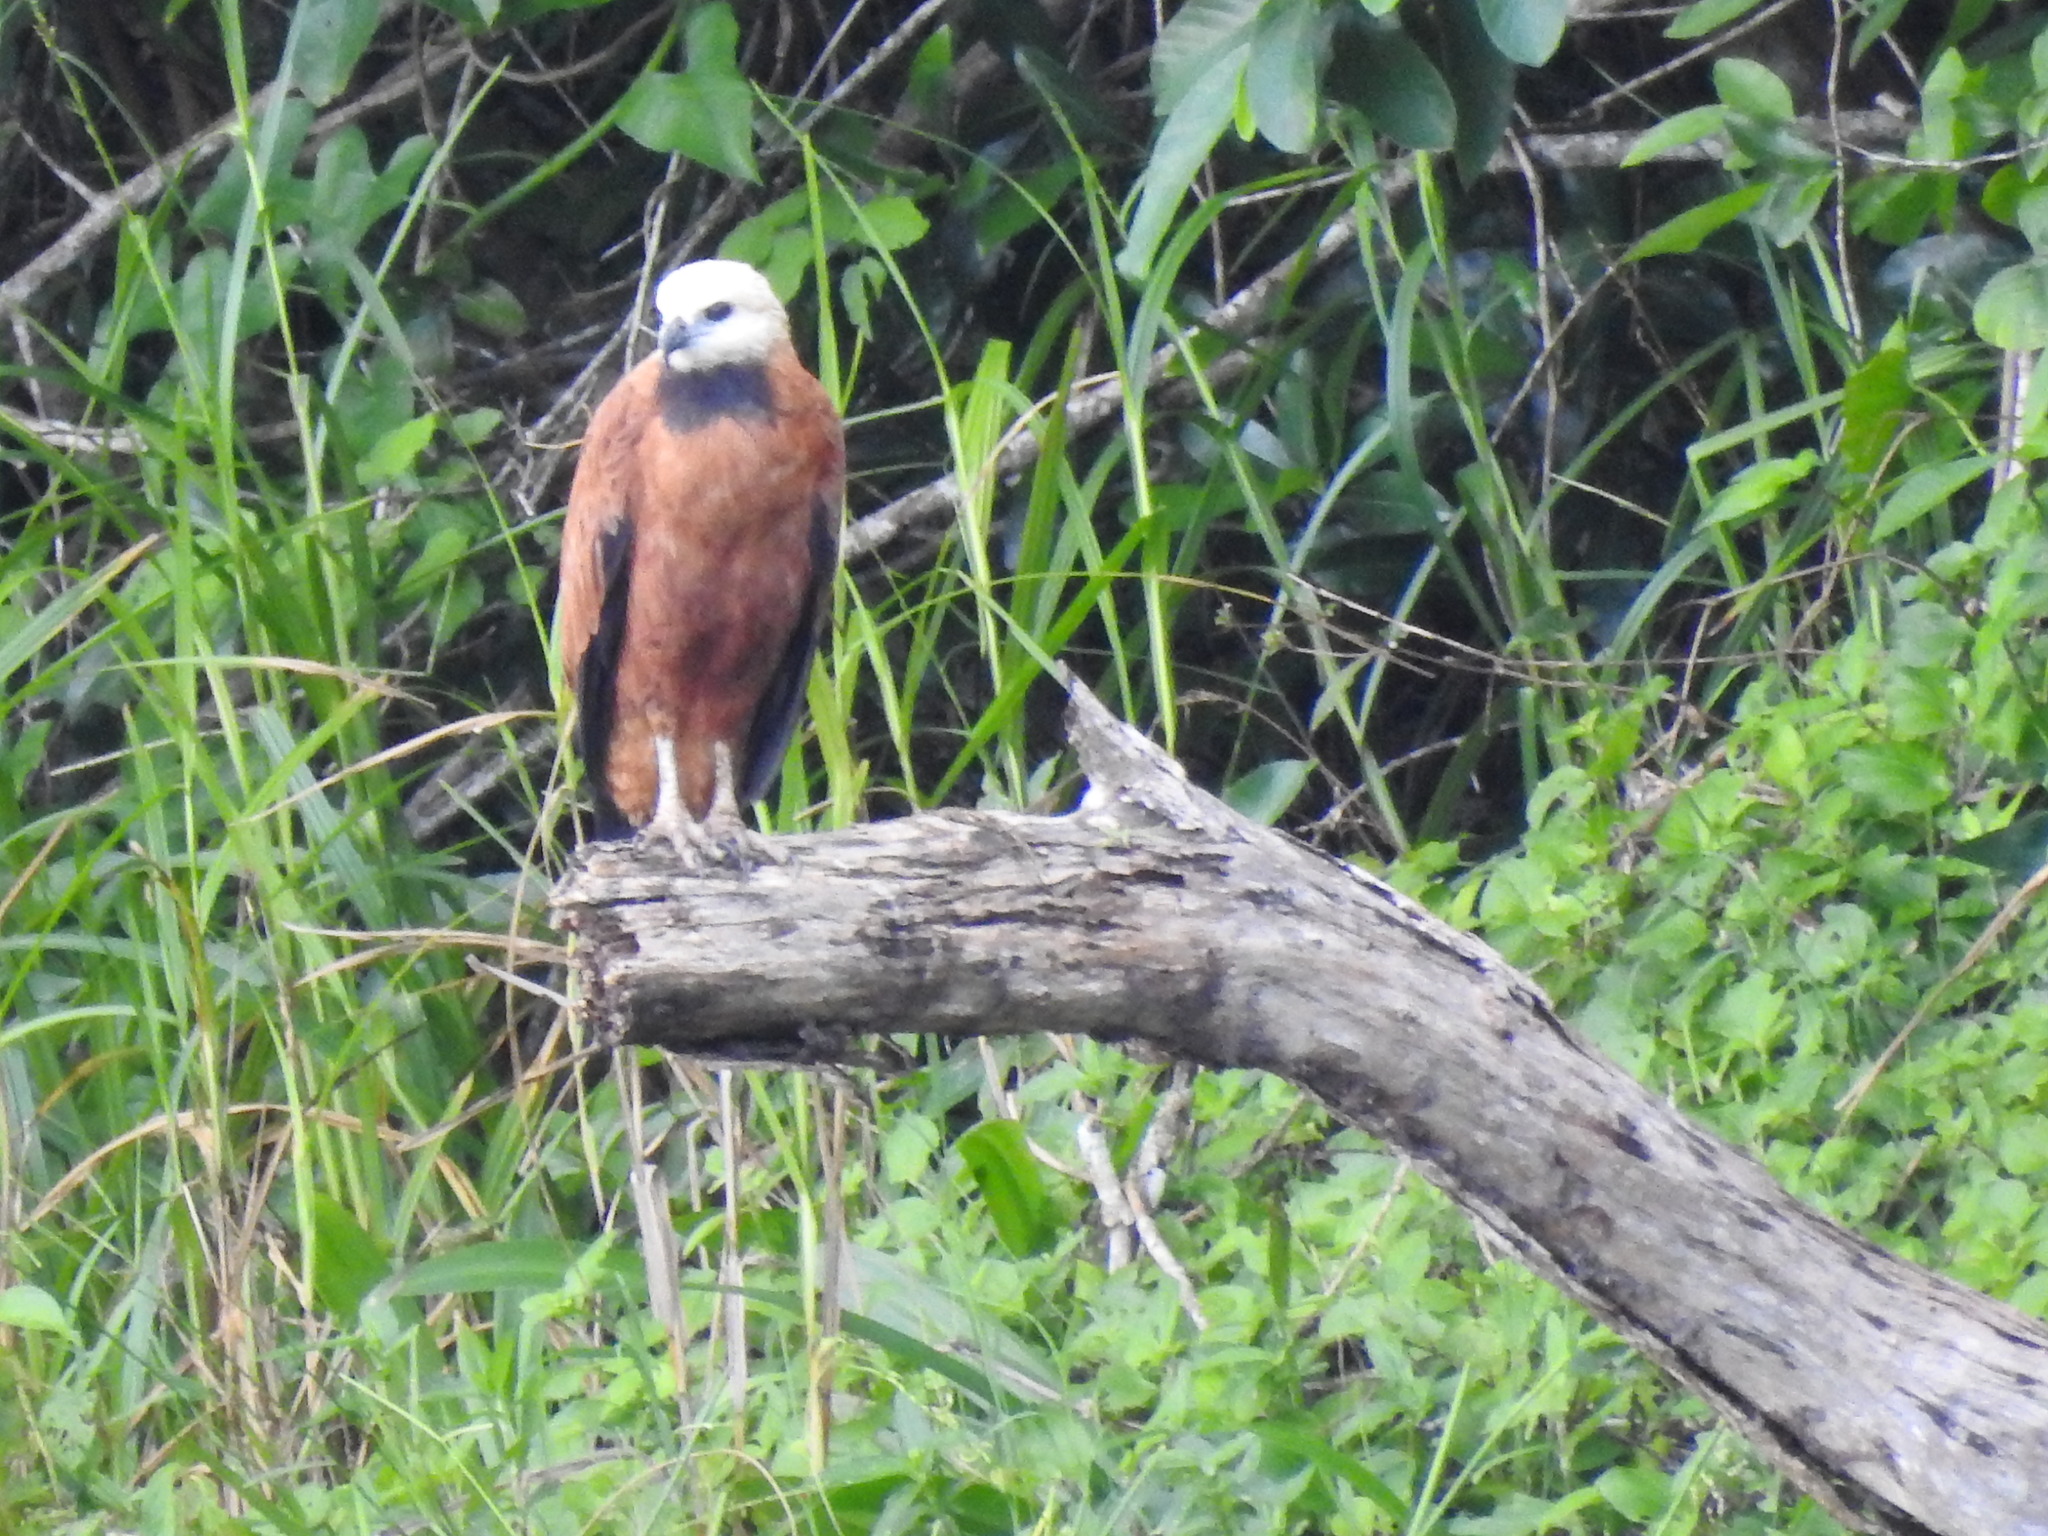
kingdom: Animalia
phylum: Chordata
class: Aves
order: Accipitriformes
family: Accipitridae
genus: Busarellus
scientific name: Busarellus nigricollis
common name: Black-collared hawk
